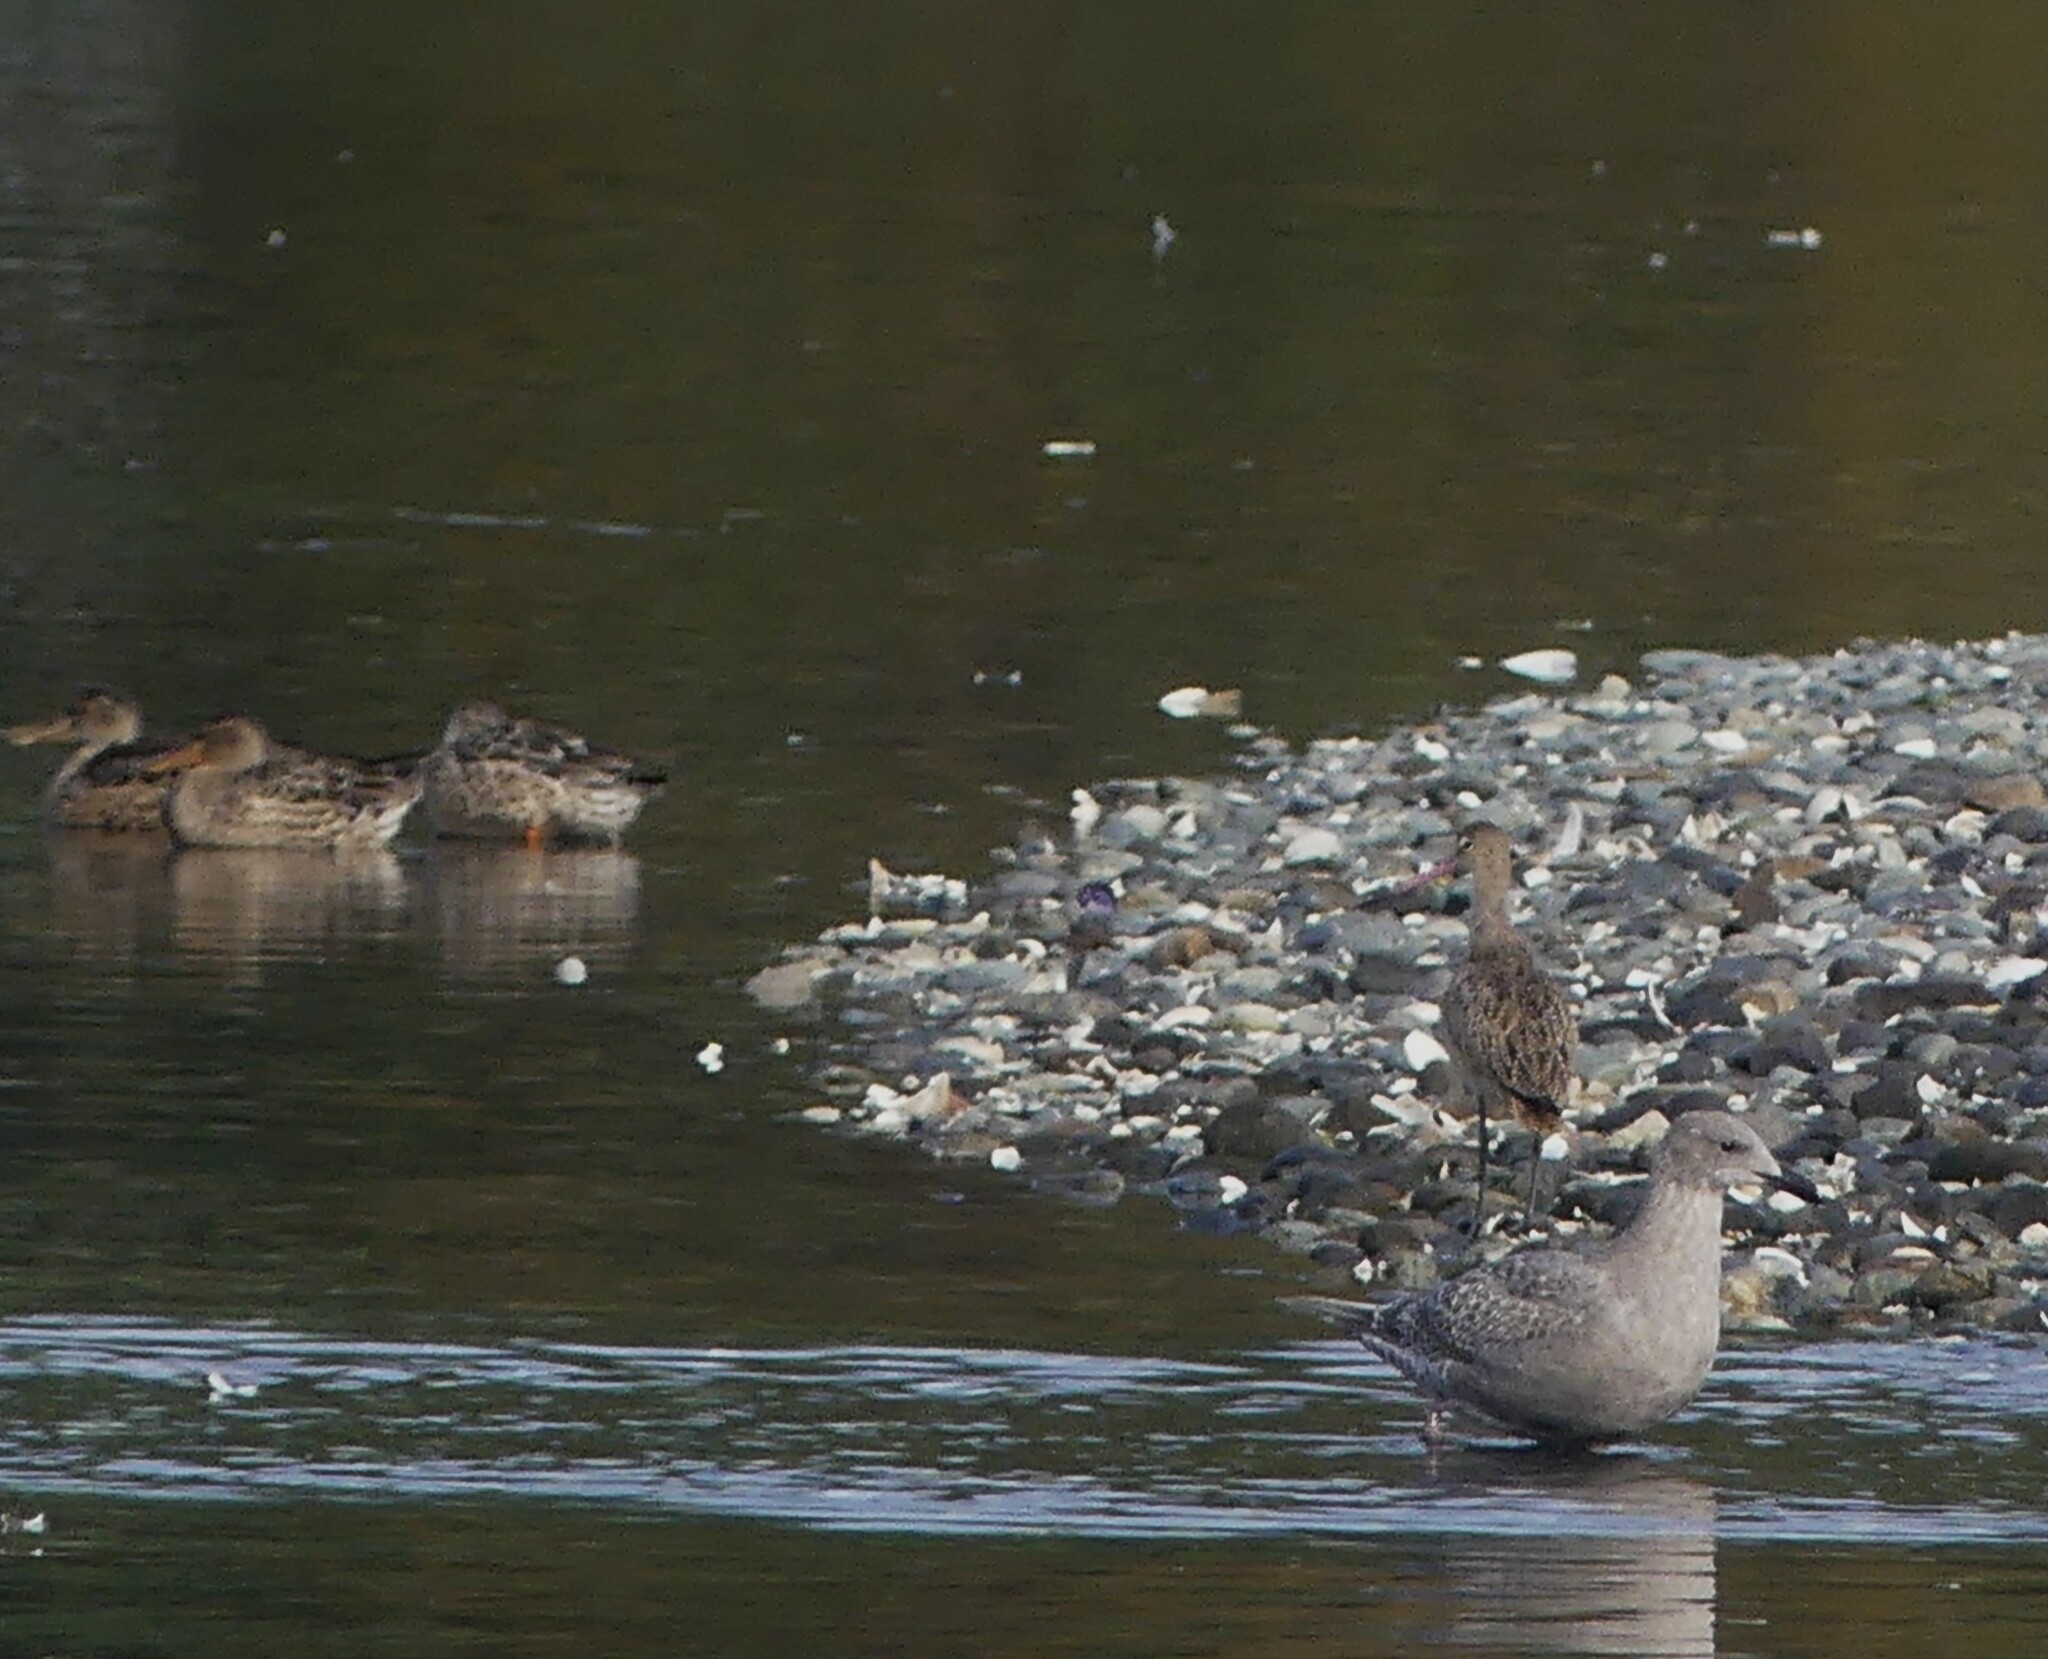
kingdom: Animalia
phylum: Chordata
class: Aves
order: Anseriformes
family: Anatidae
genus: Spatula
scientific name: Spatula clypeata
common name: Northern shoveler
